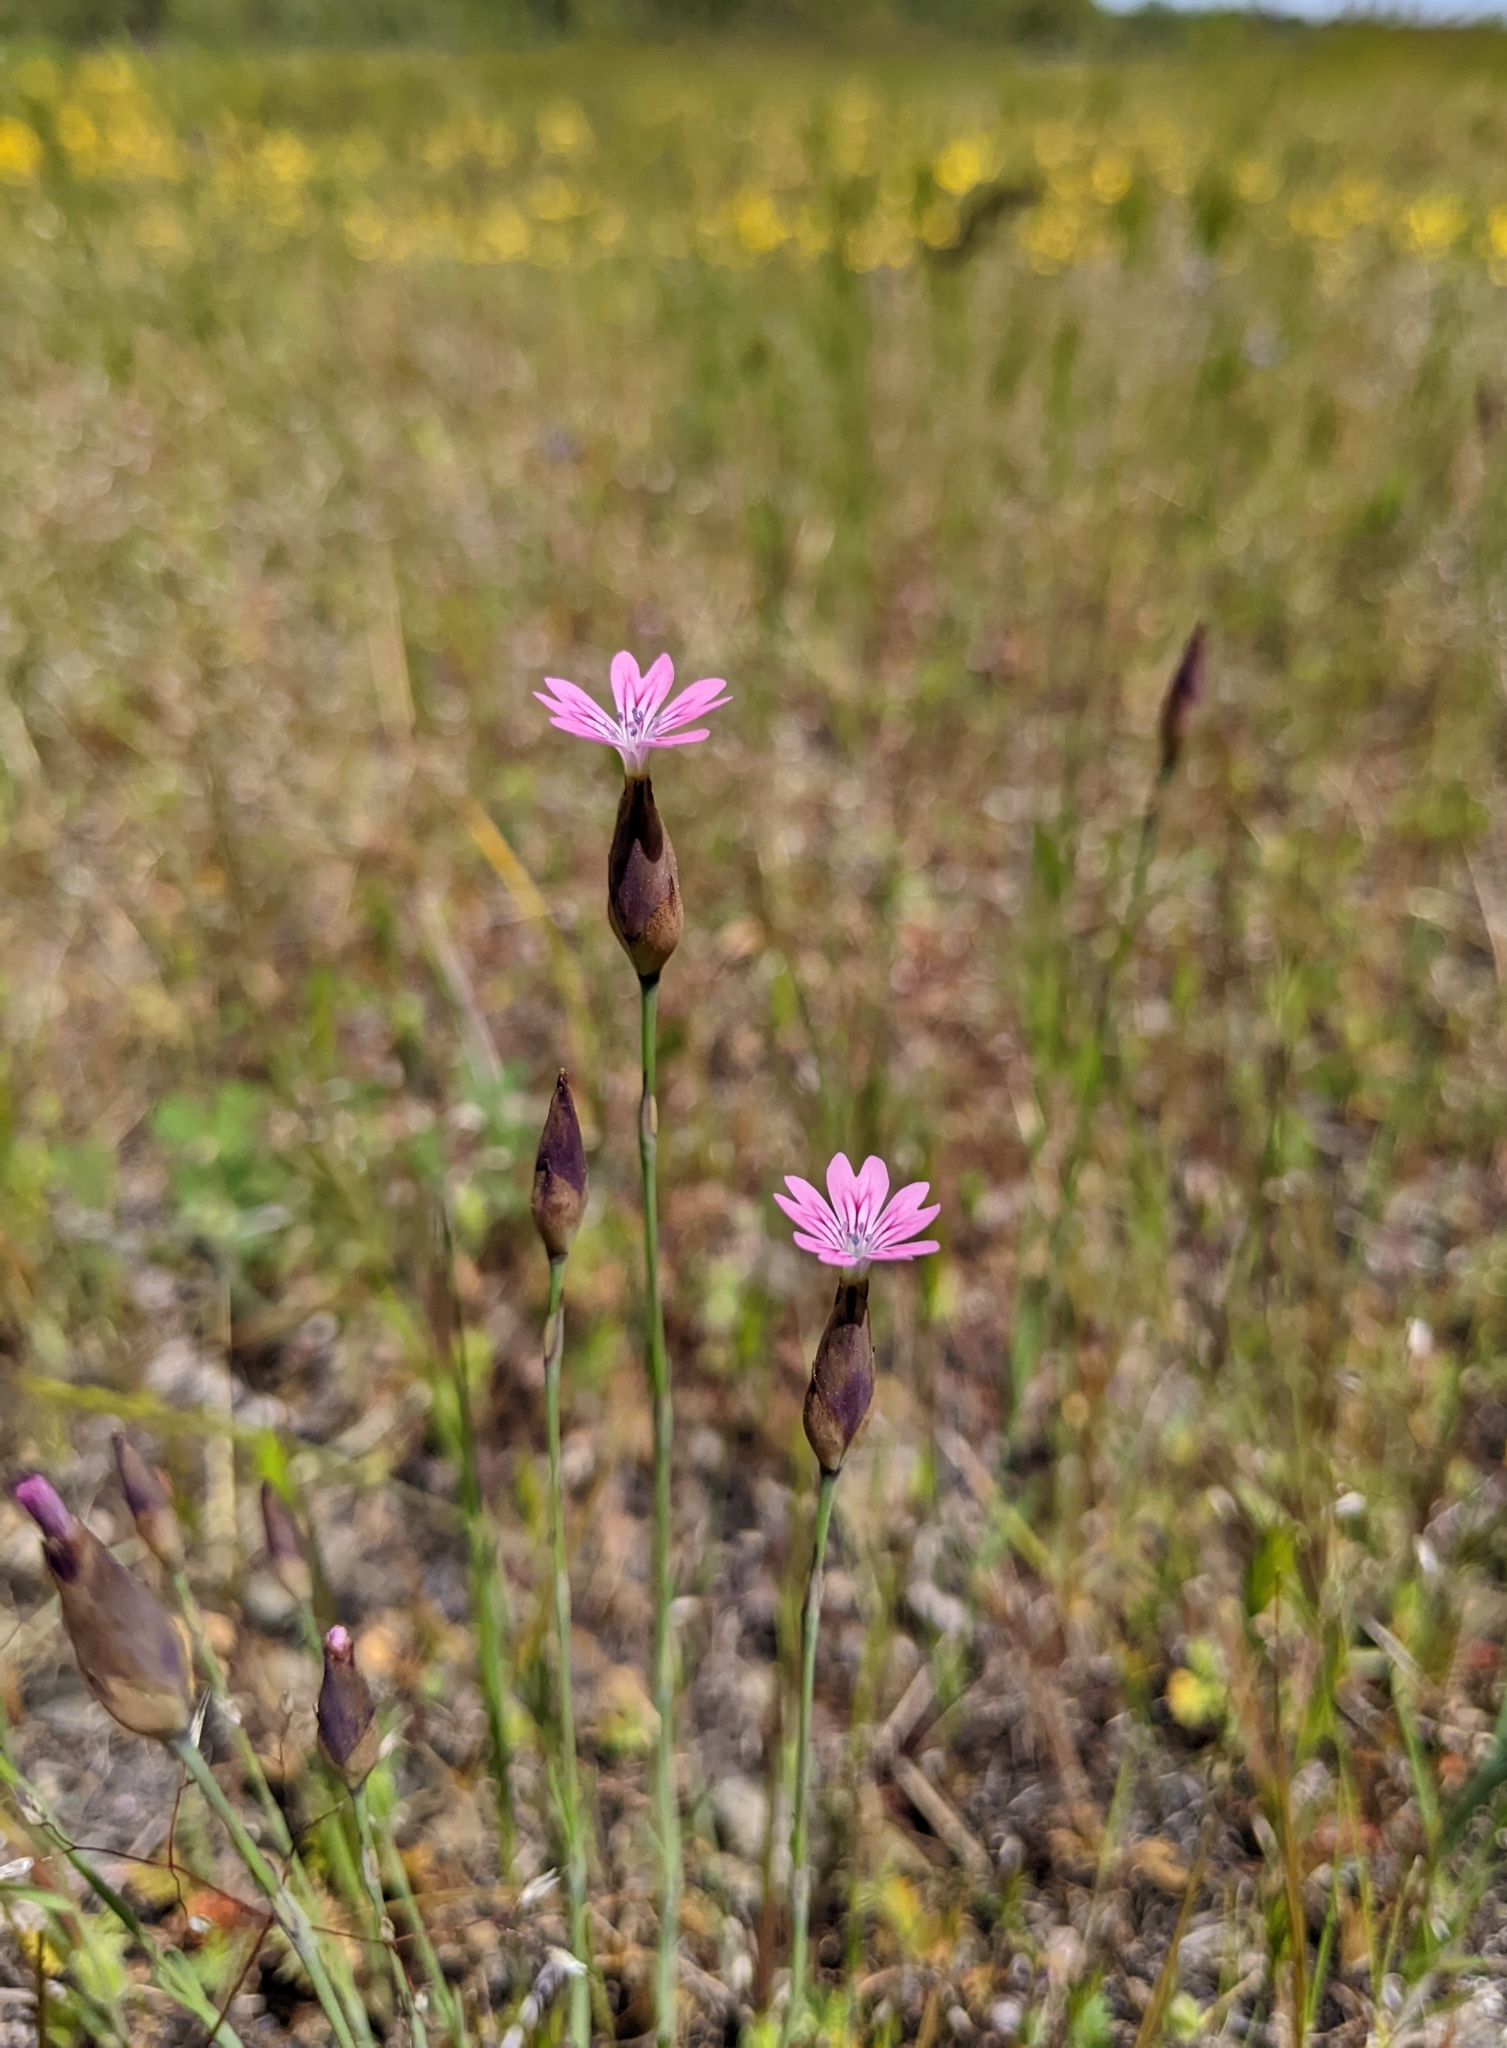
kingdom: Plantae
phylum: Tracheophyta
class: Magnoliopsida
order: Caryophyllales
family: Caryophyllaceae
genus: Petrorhagia
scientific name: Petrorhagia dubia
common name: Hairypink
